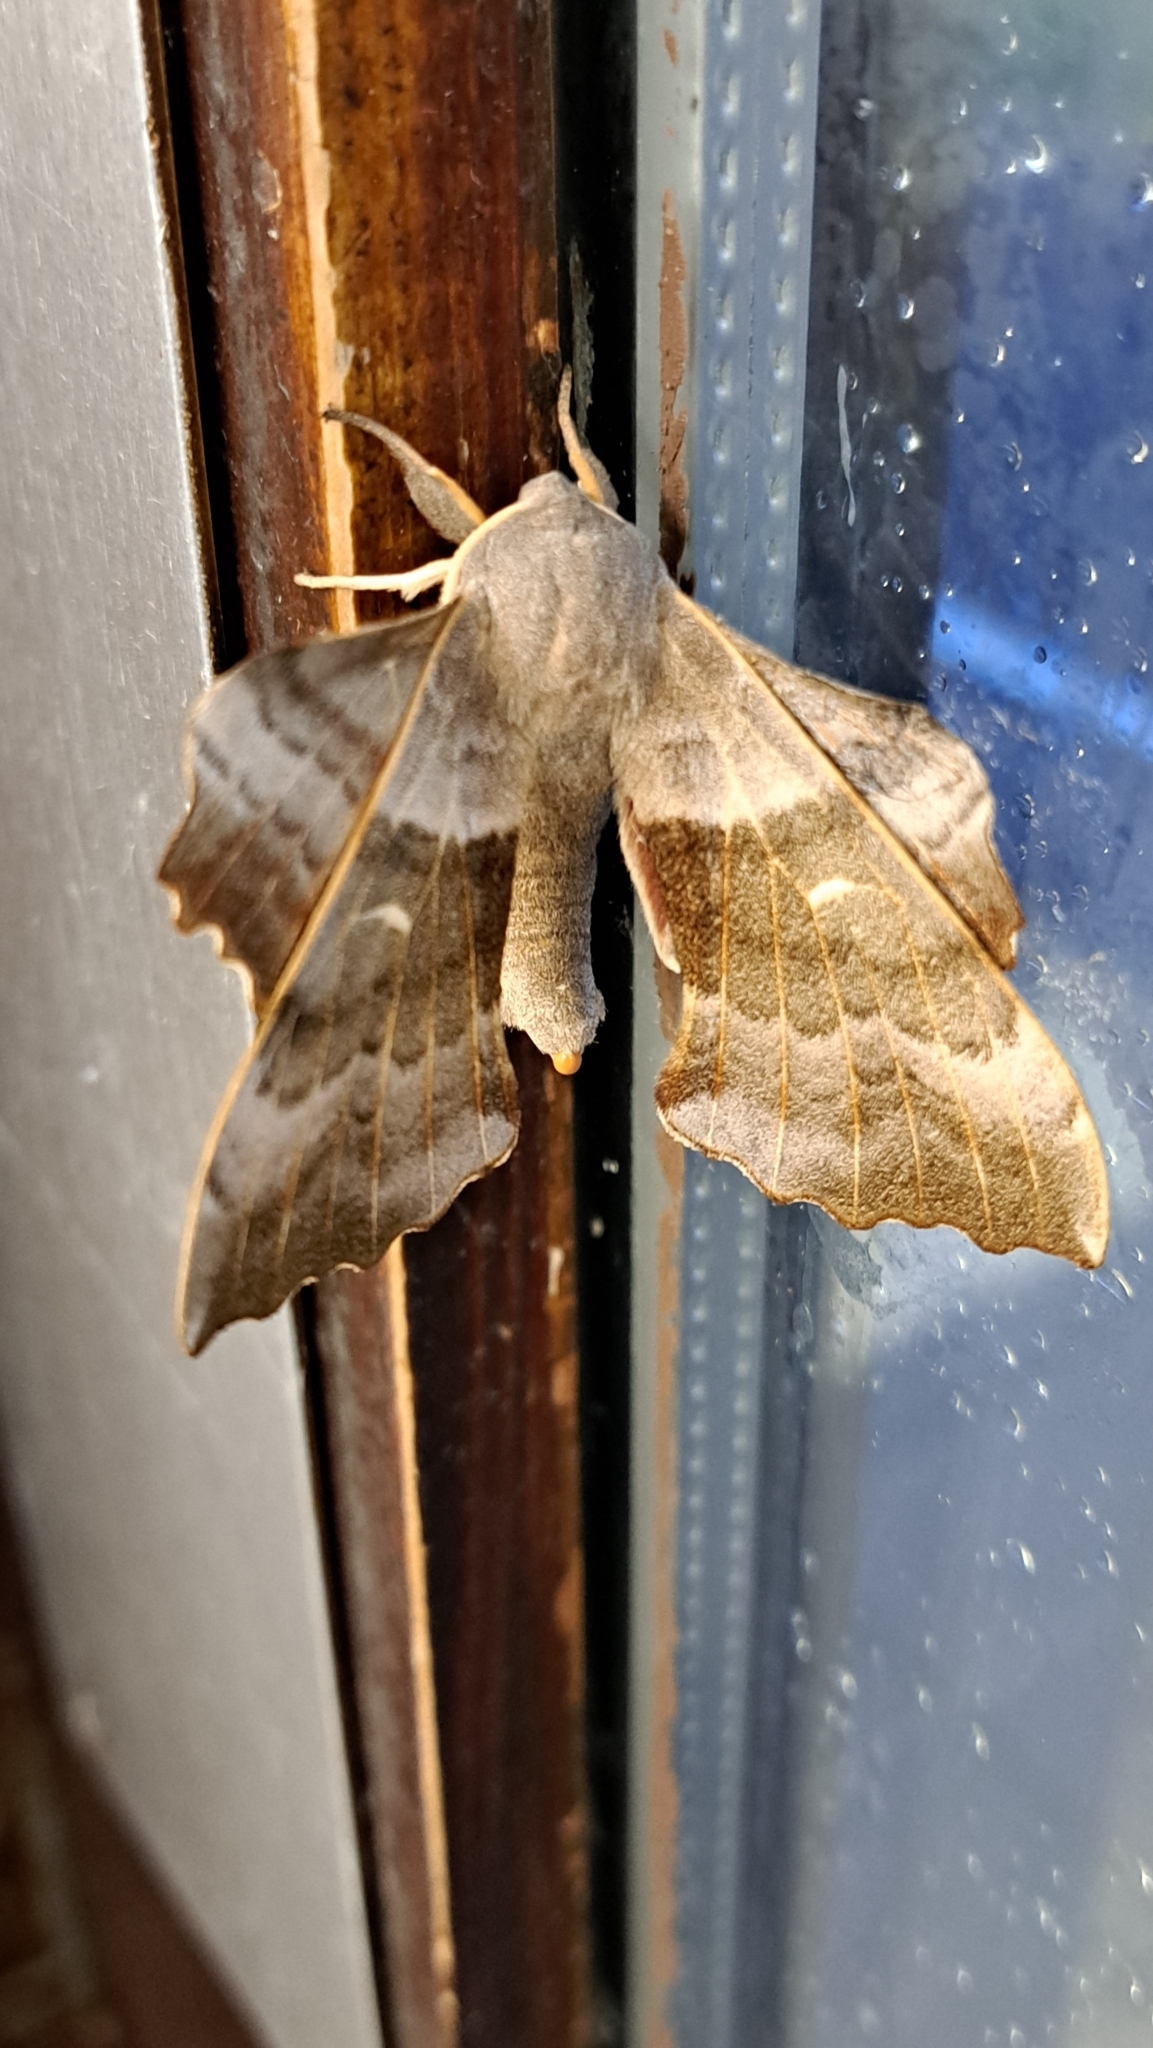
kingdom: Animalia
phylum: Arthropoda
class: Insecta
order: Lepidoptera
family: Sphingidae
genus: Laothoe
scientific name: Laothoe populi
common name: Poplar hawk-moth
